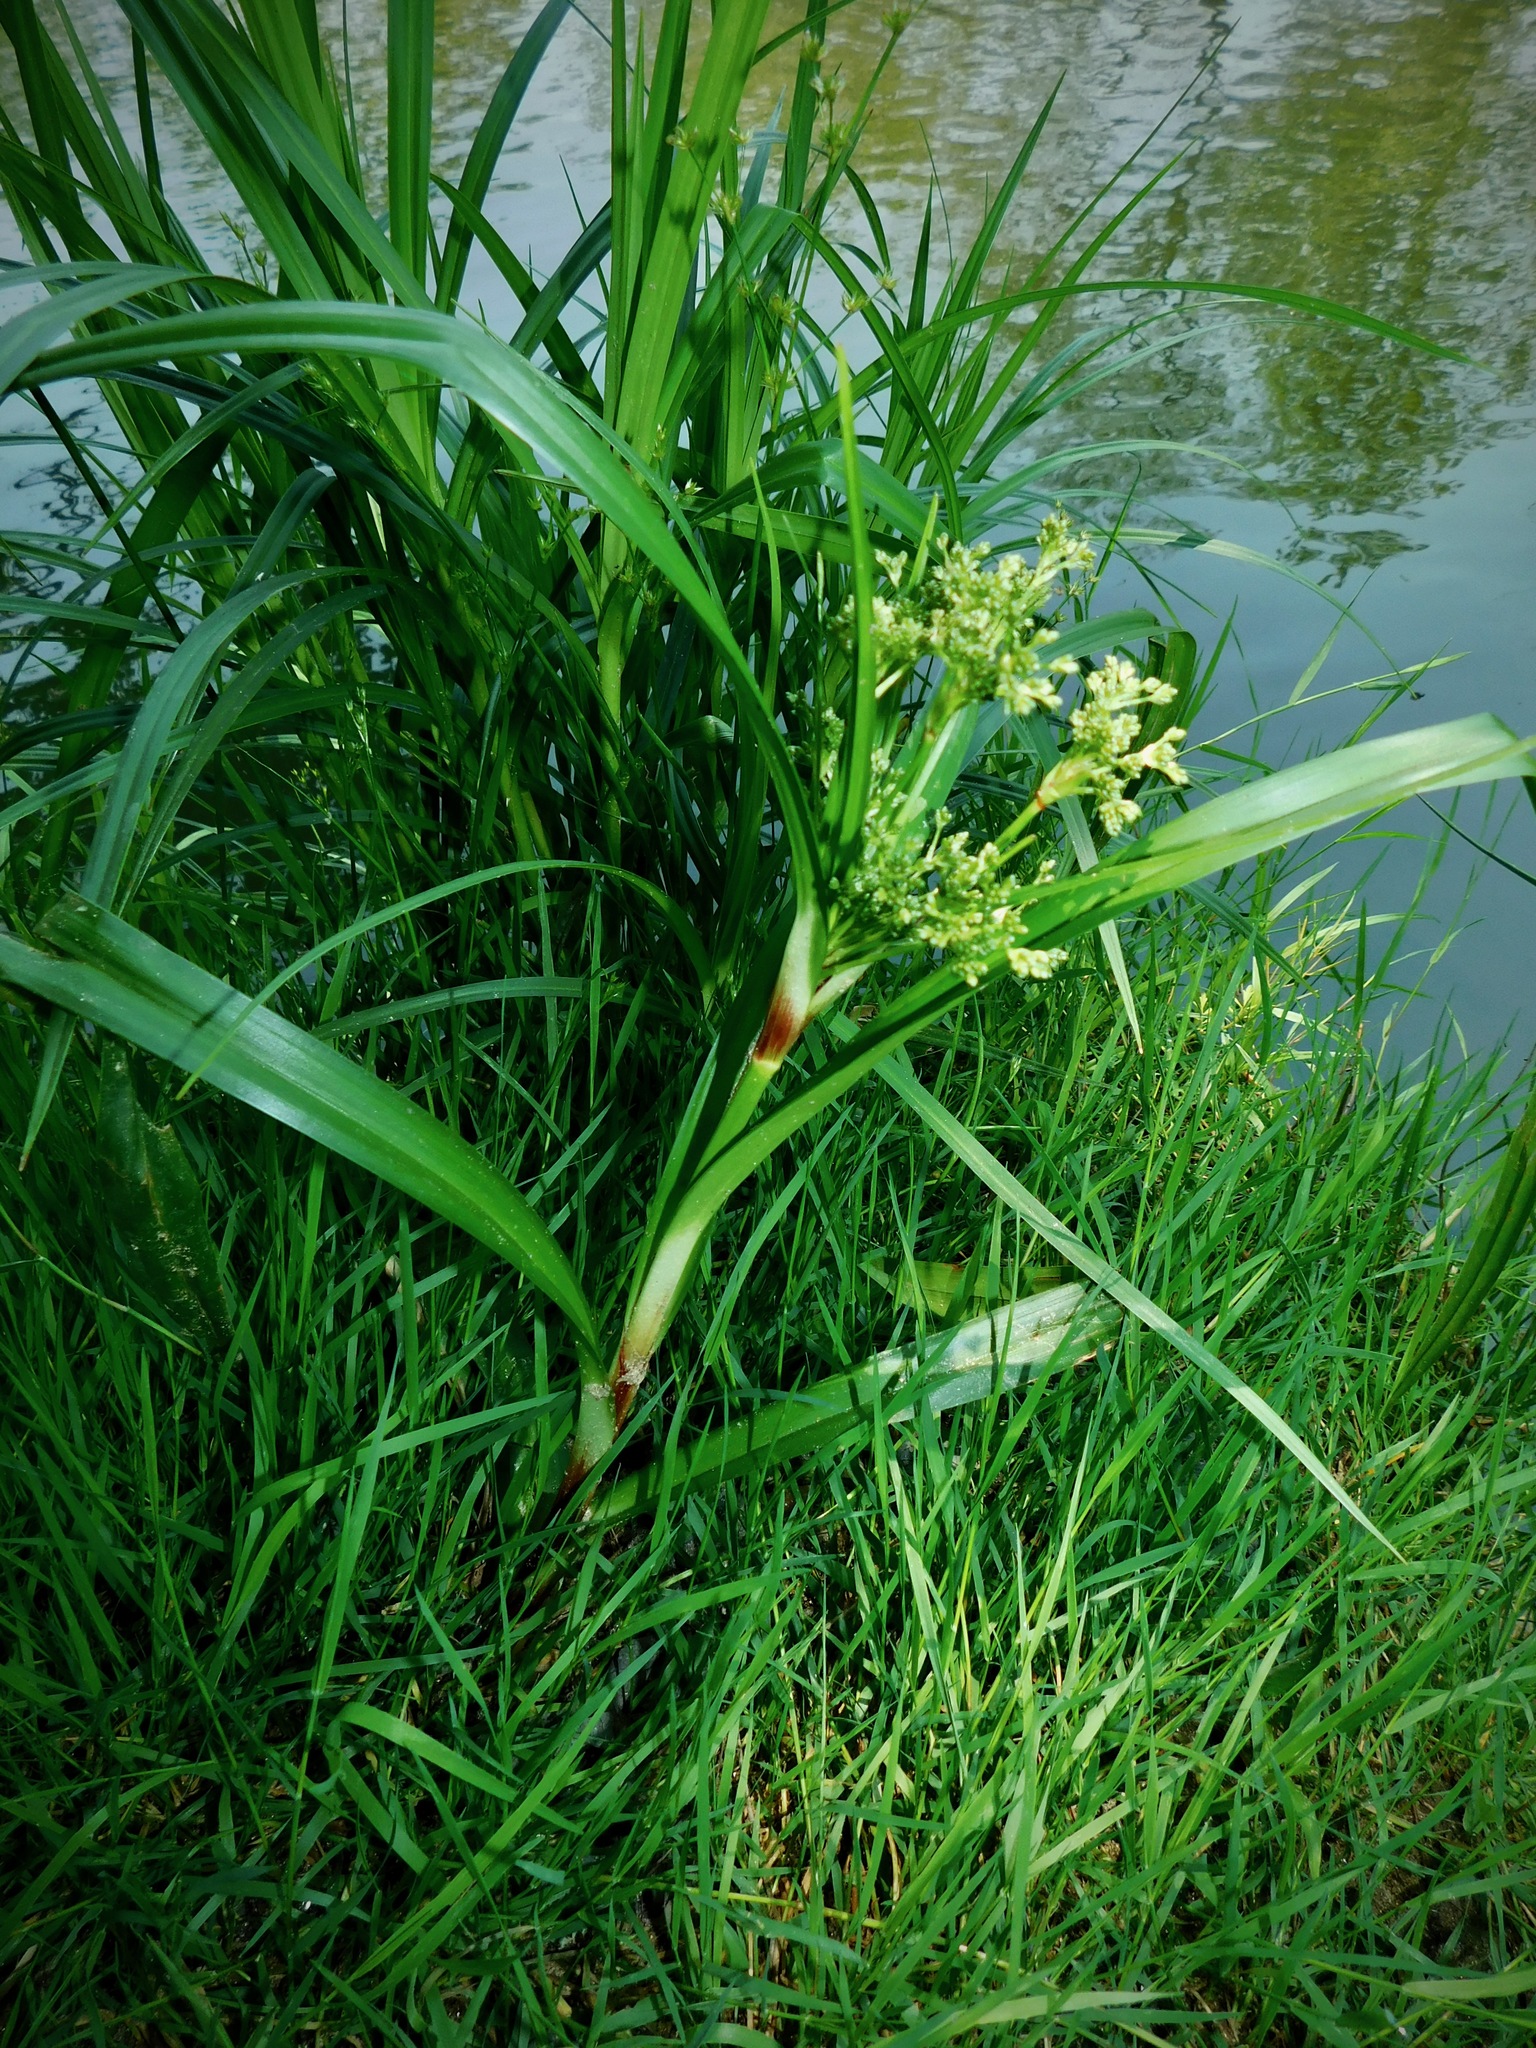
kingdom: Plantae
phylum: Tracheophyta
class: Liliopsida
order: Poales
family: Cyperaceae
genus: Scirpus
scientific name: Scirpus expansus
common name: Woodland bulrush
